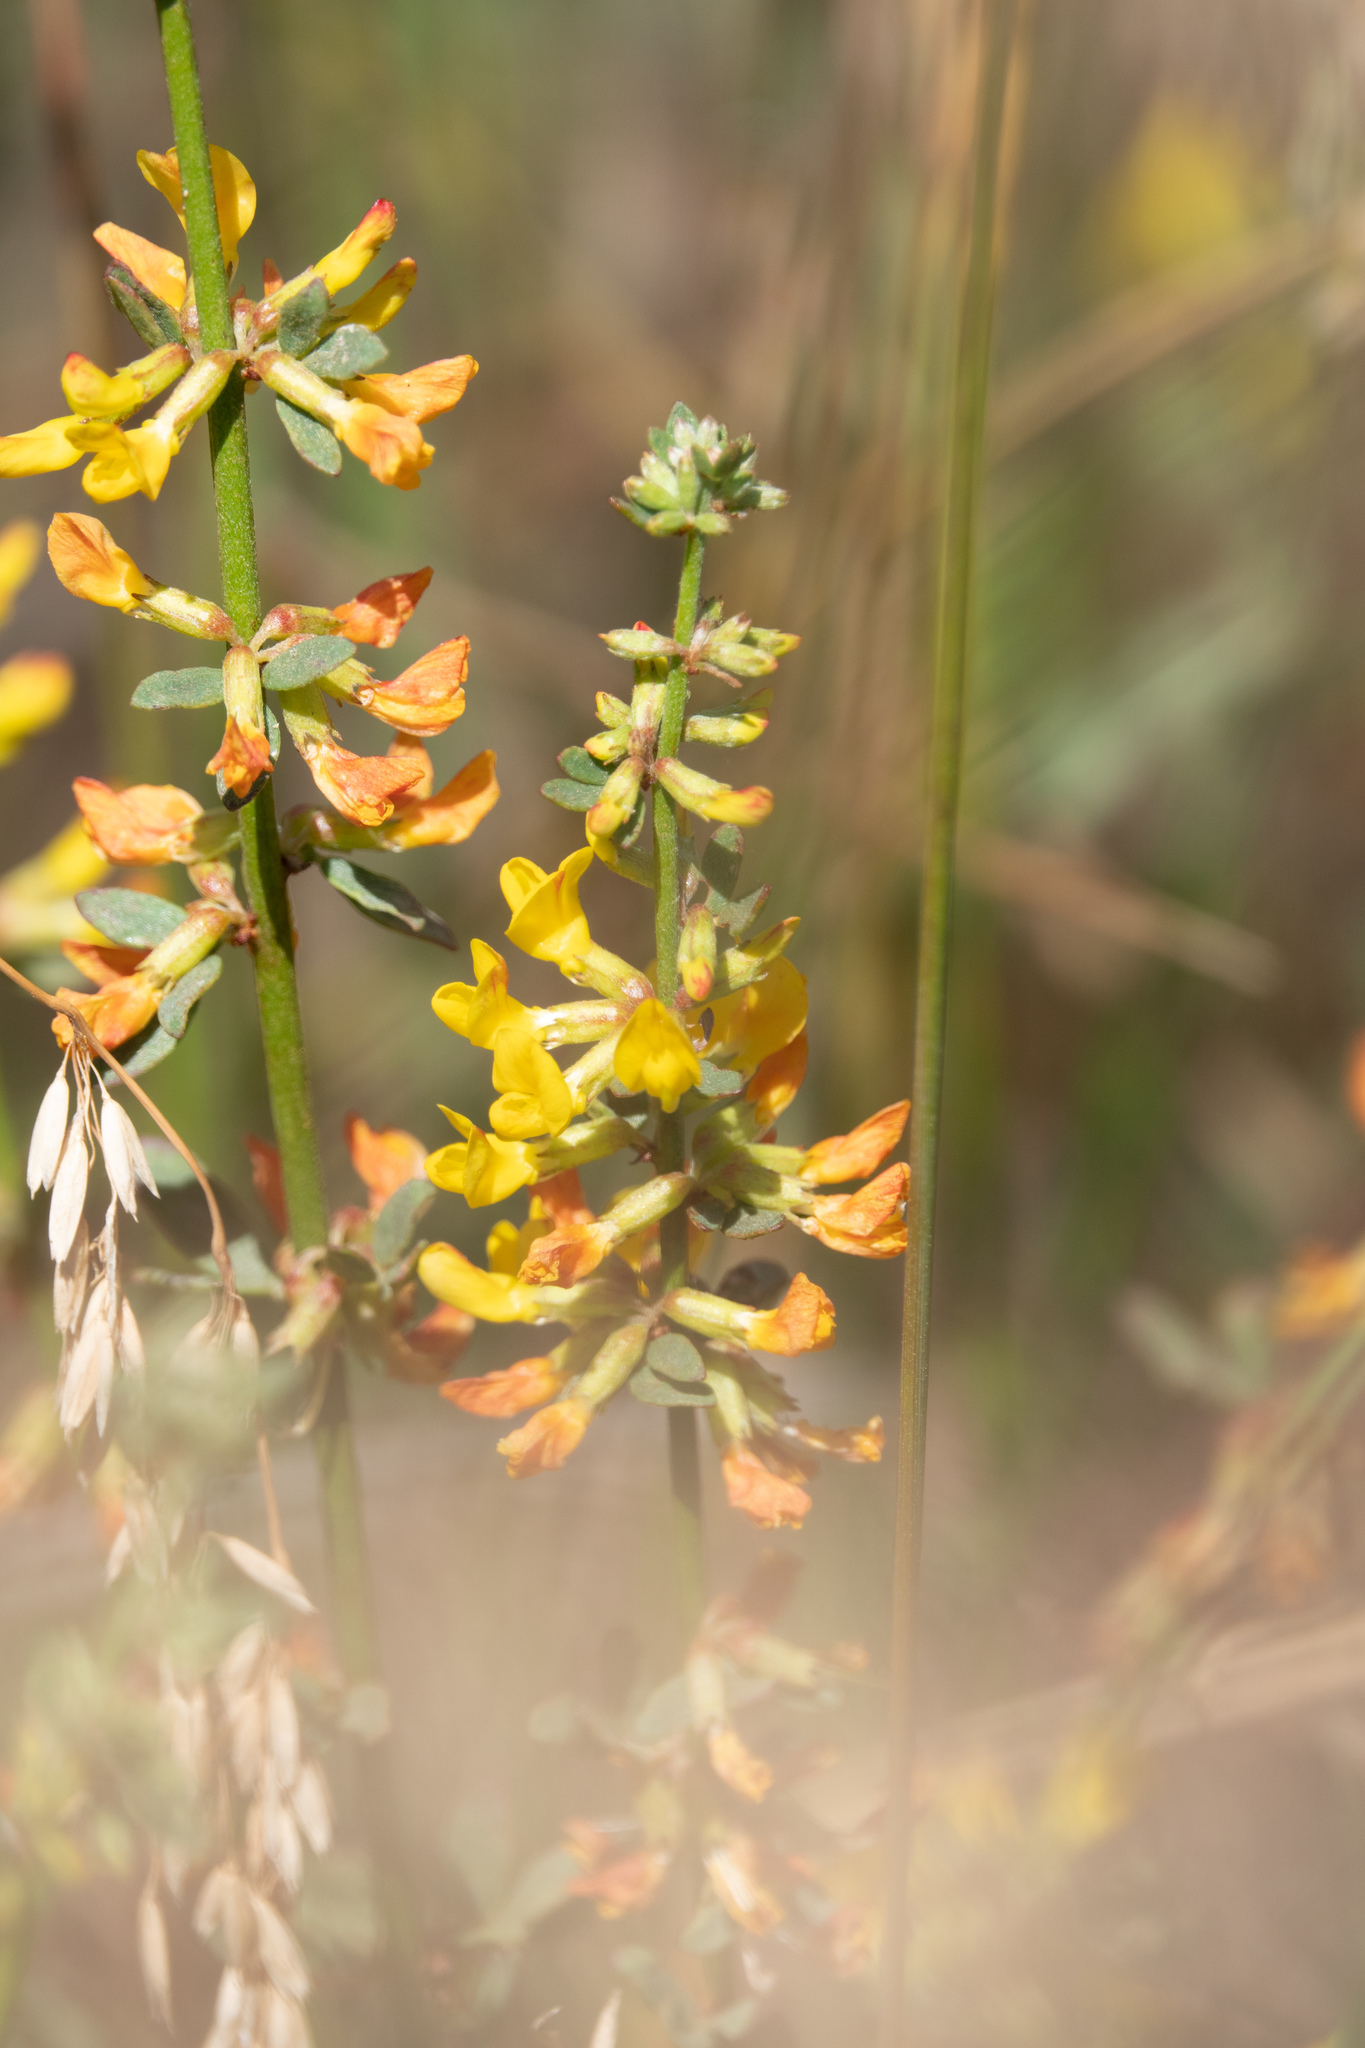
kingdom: Plantae
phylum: Tracheophyta
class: Magnoliopsida
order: Fabales
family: Fabaceae
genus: Acmispon
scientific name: Acmispon glaber
